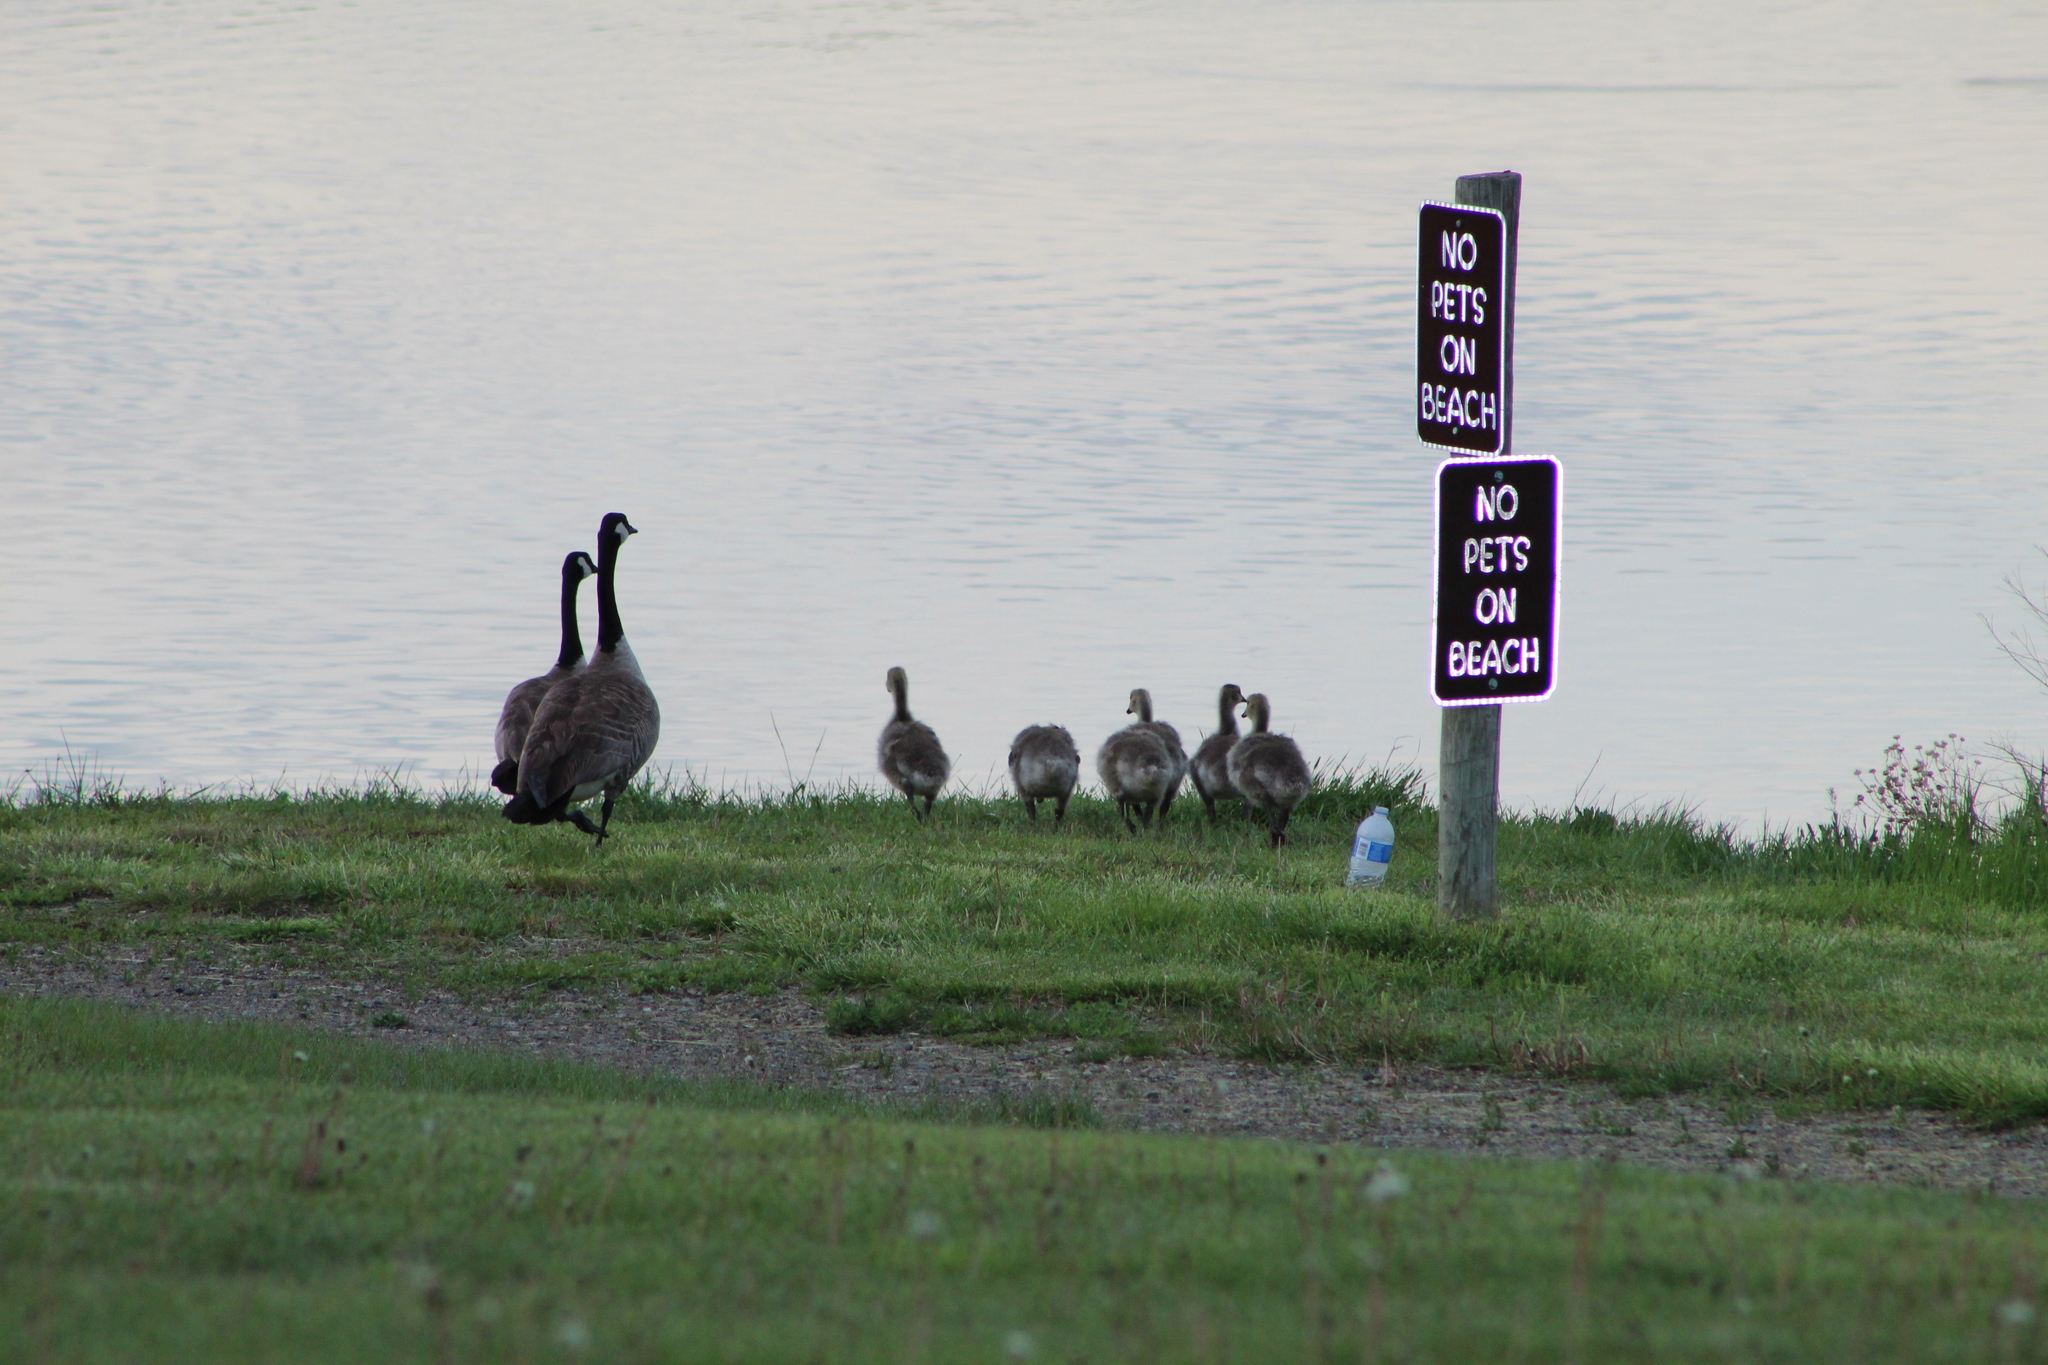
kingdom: Animalia
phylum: Chordata
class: Aves
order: Anseriformes
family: Anatidae
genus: Branta
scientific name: Branta canadensis
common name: Canada goose
